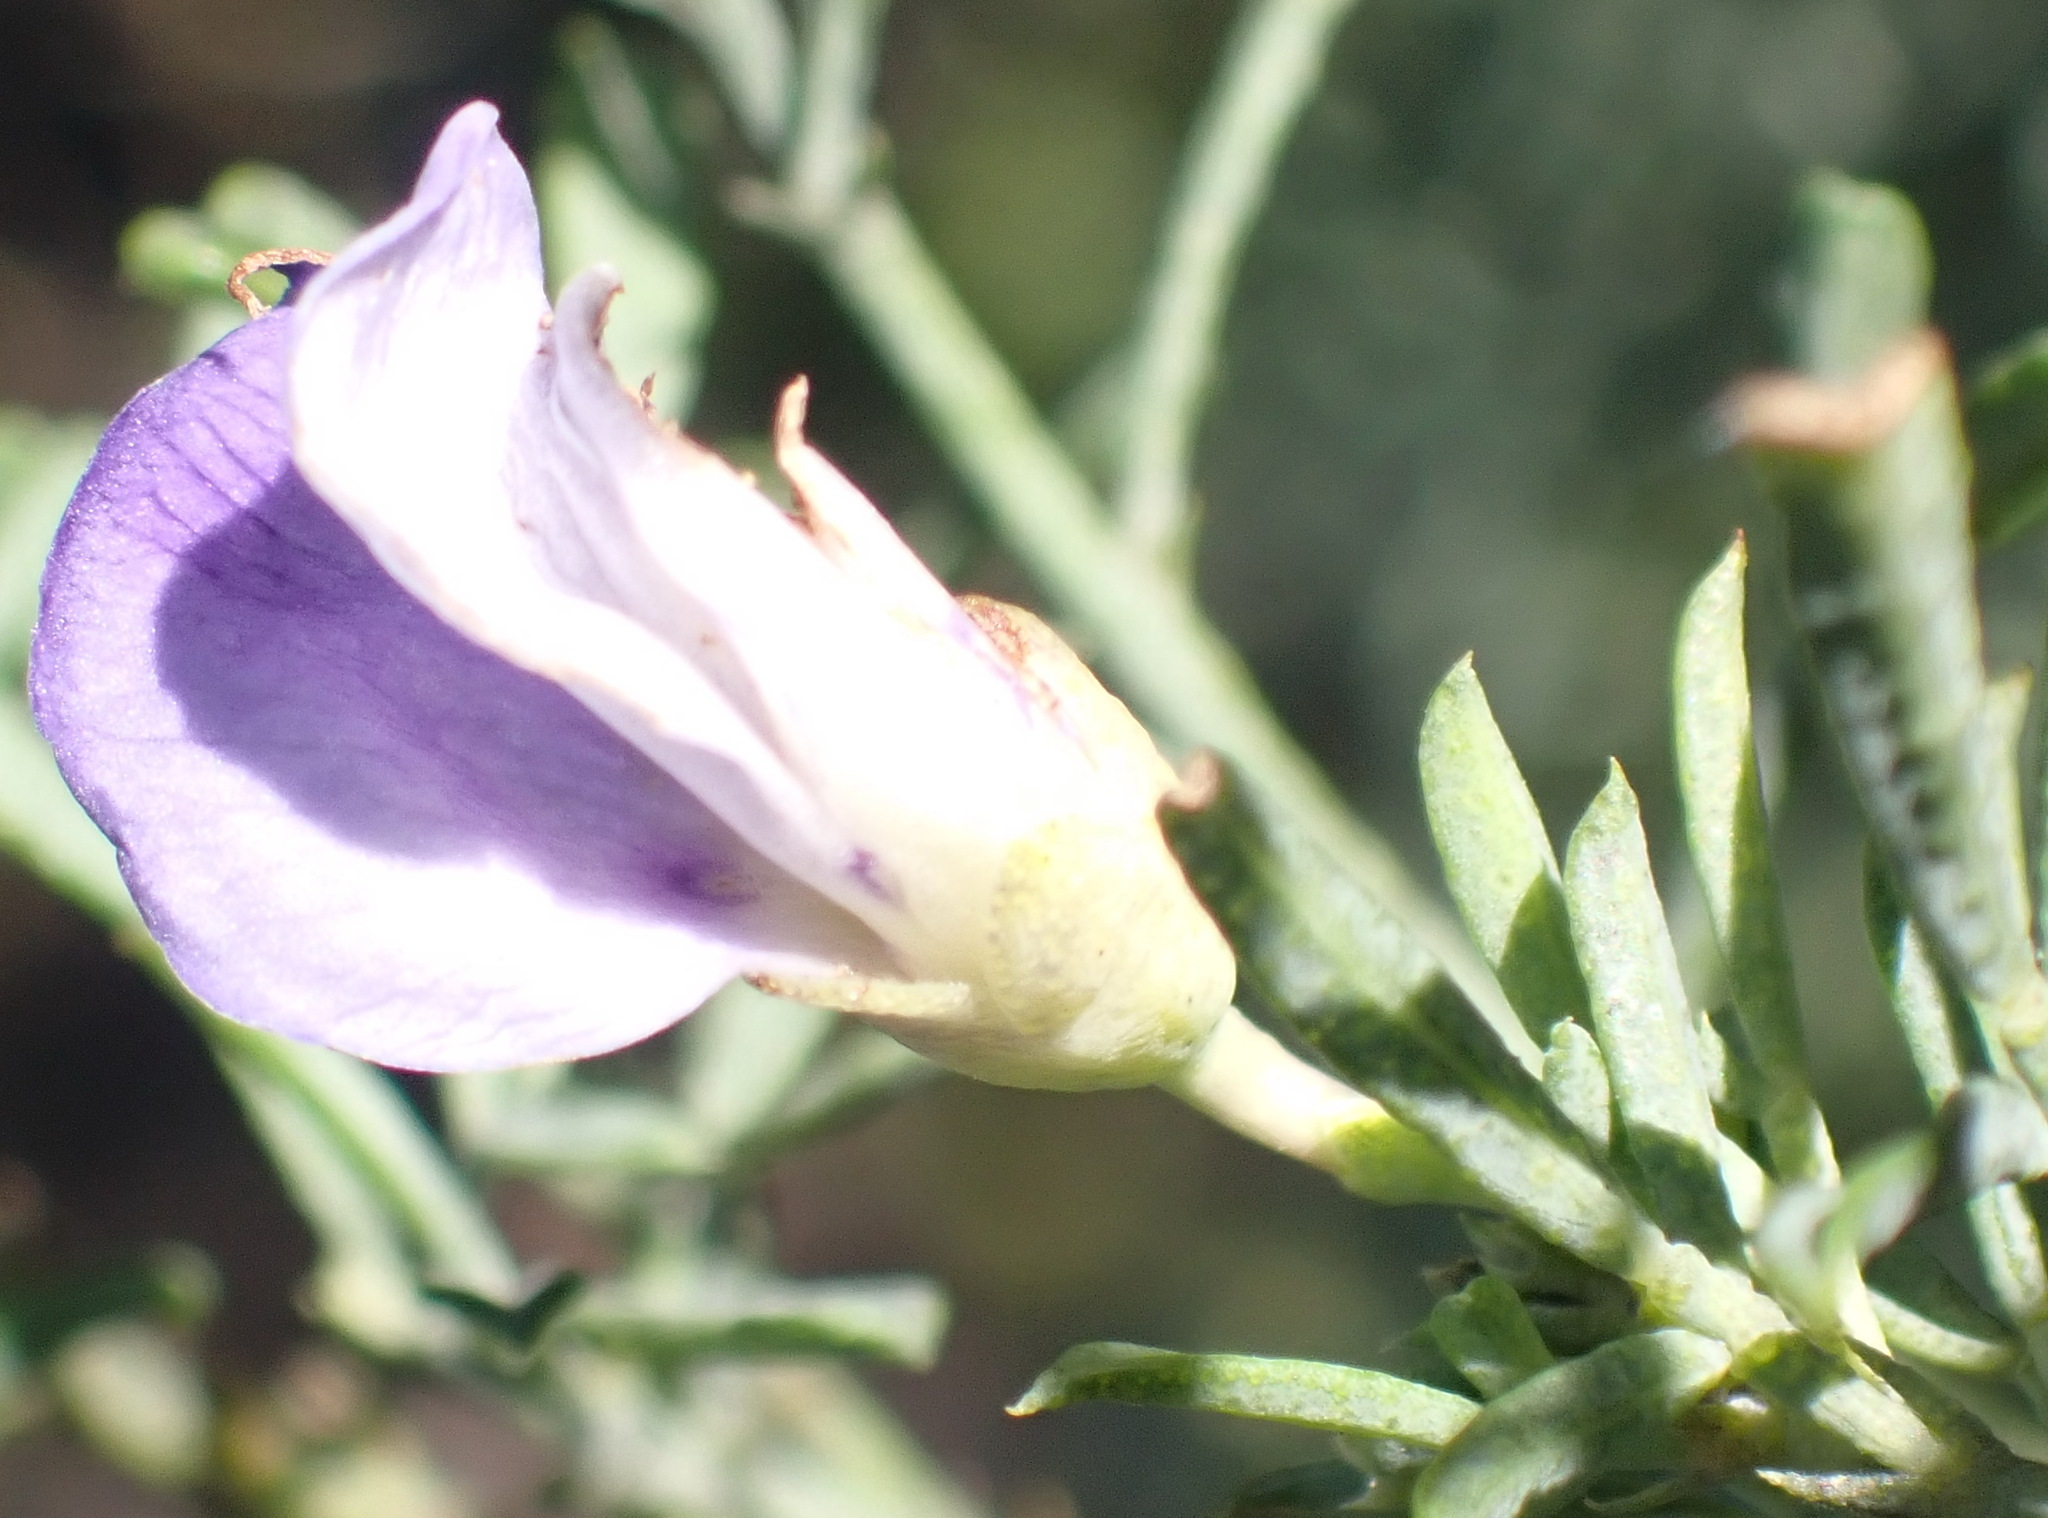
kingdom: Plantae
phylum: Tracheophyta
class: Magnoliopsida
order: Fabales
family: Fabaceae
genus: Psoralea
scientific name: Psoralea axillaris
